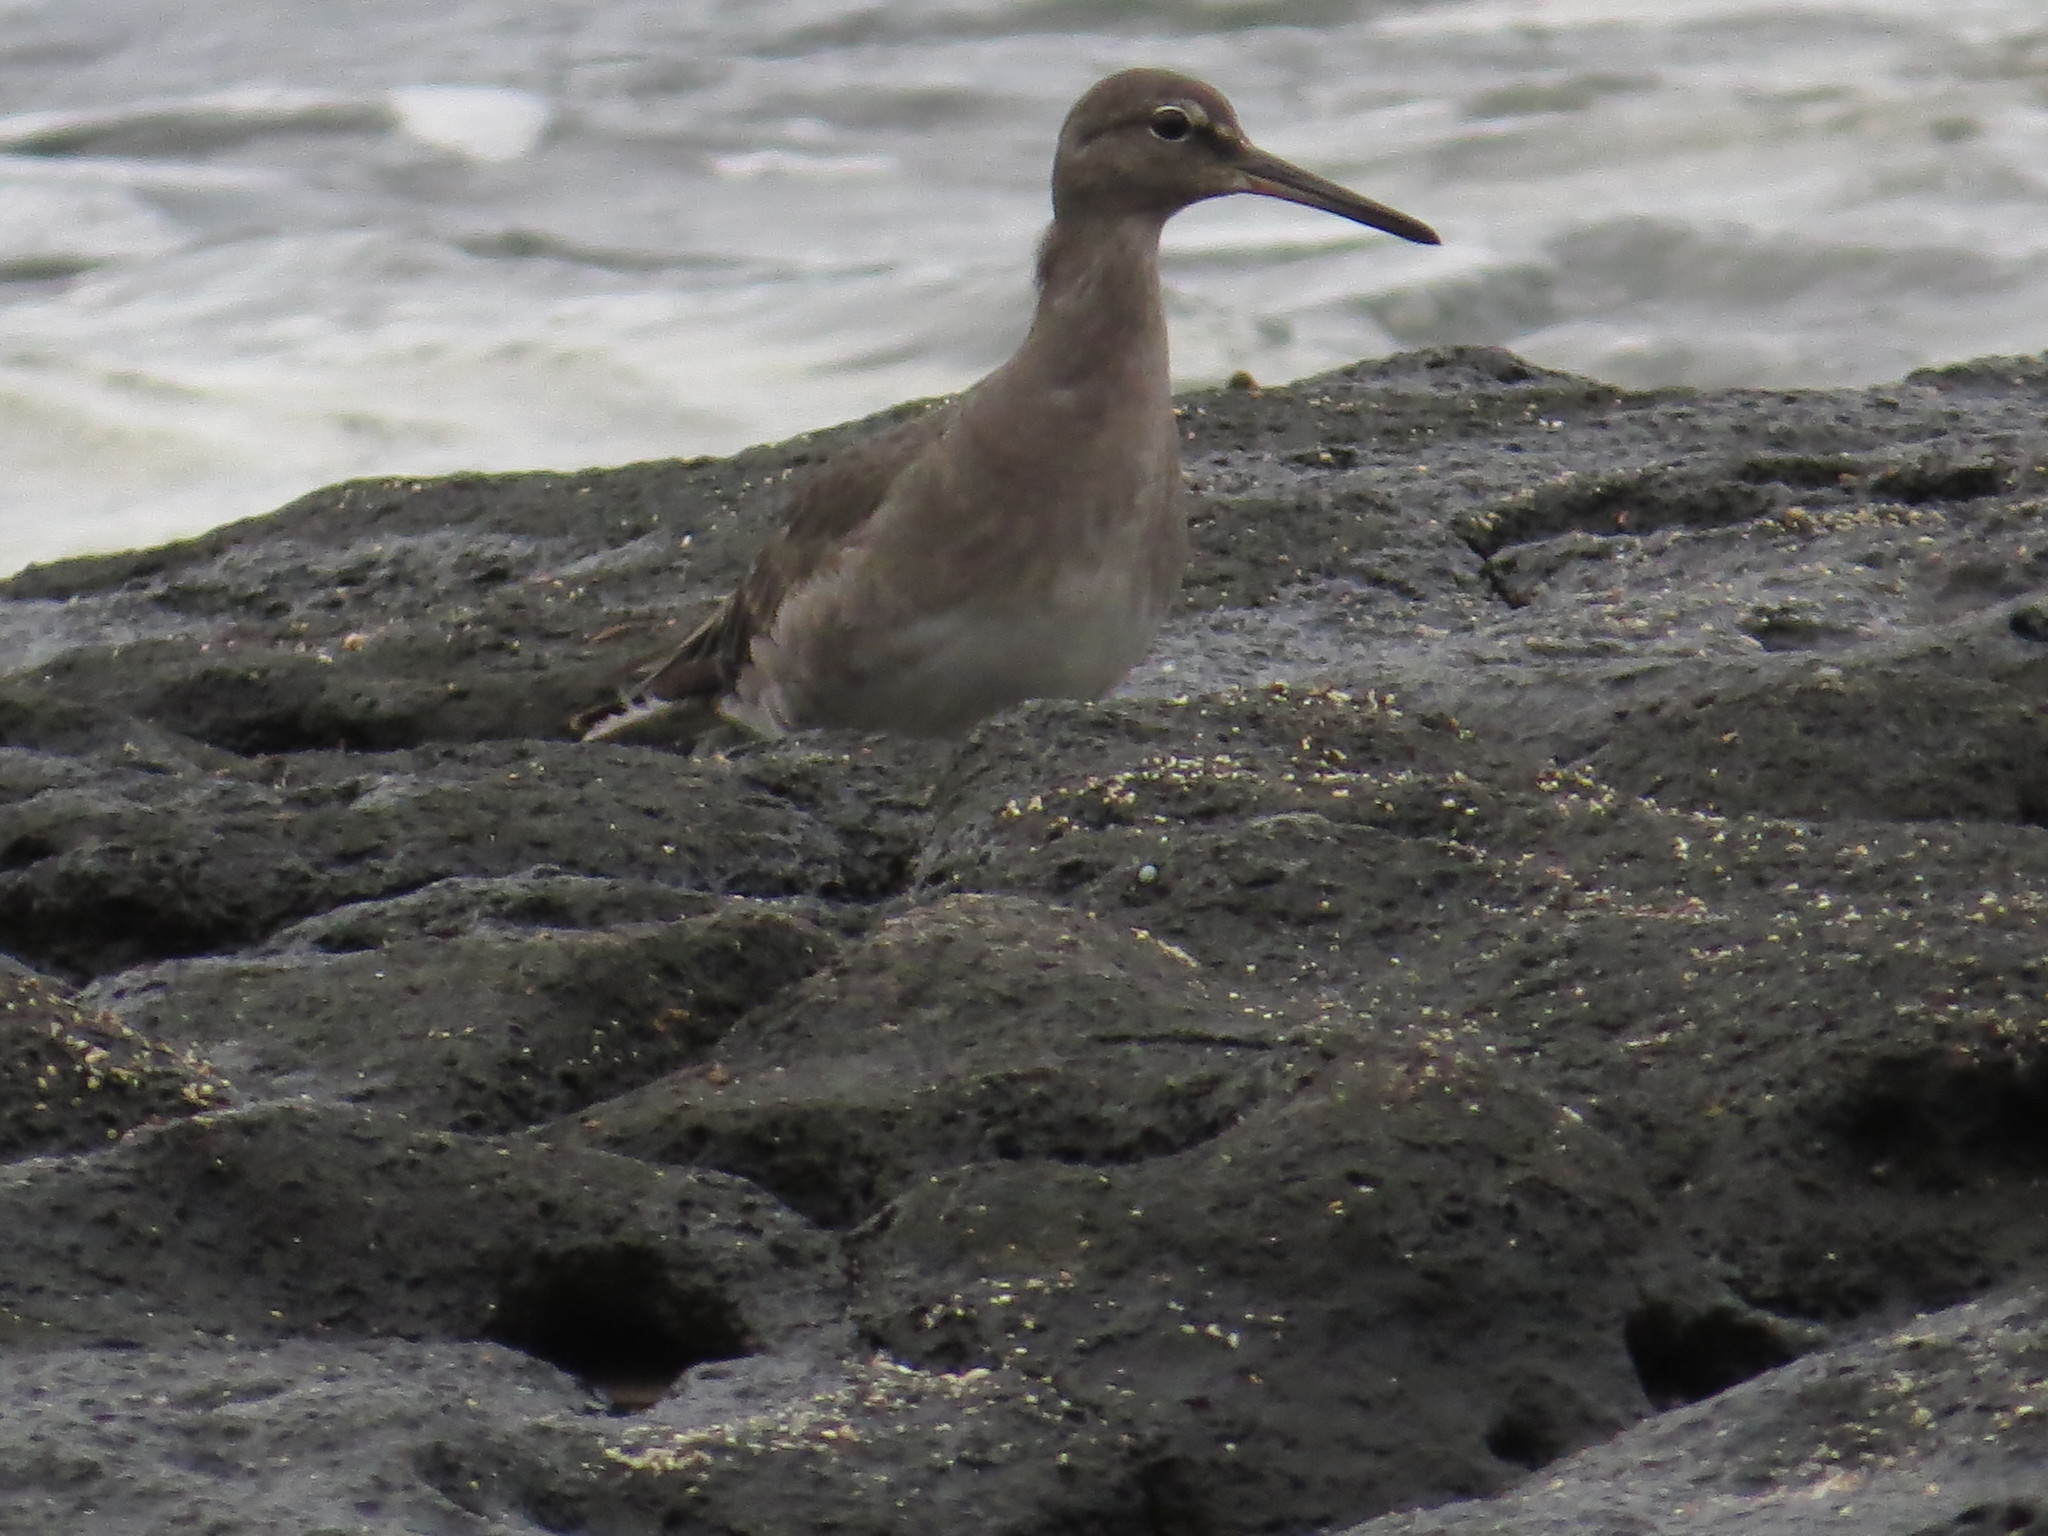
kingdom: Animalia
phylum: Chordata
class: Aves
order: Charadriiformes
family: Scolopacidae
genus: Tringa
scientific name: Tringa incana
